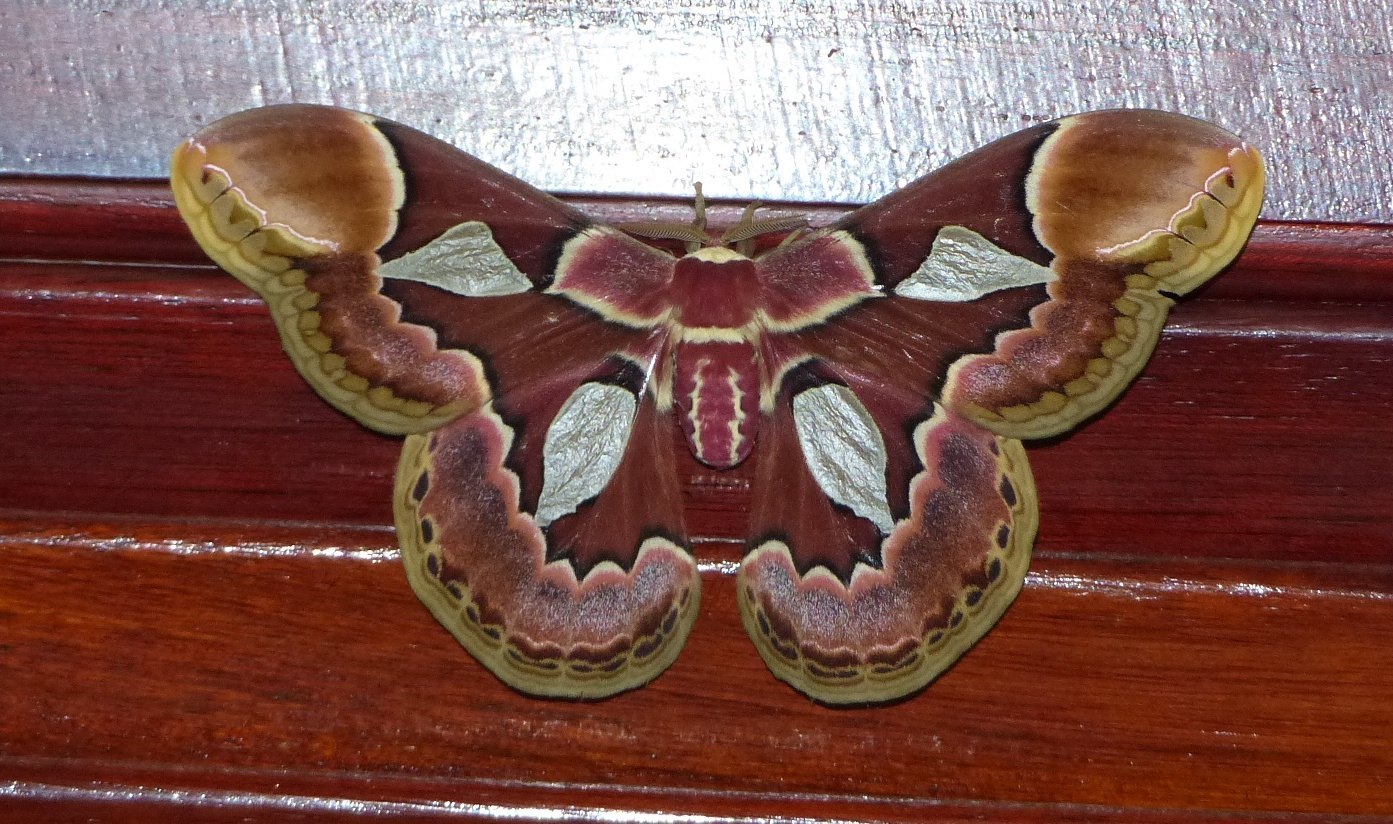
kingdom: Animalia
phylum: Arthropoda
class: Insecta
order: Lepidoptera
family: Saturniidae
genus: Rothschildia
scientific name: Rothschildia erycina
